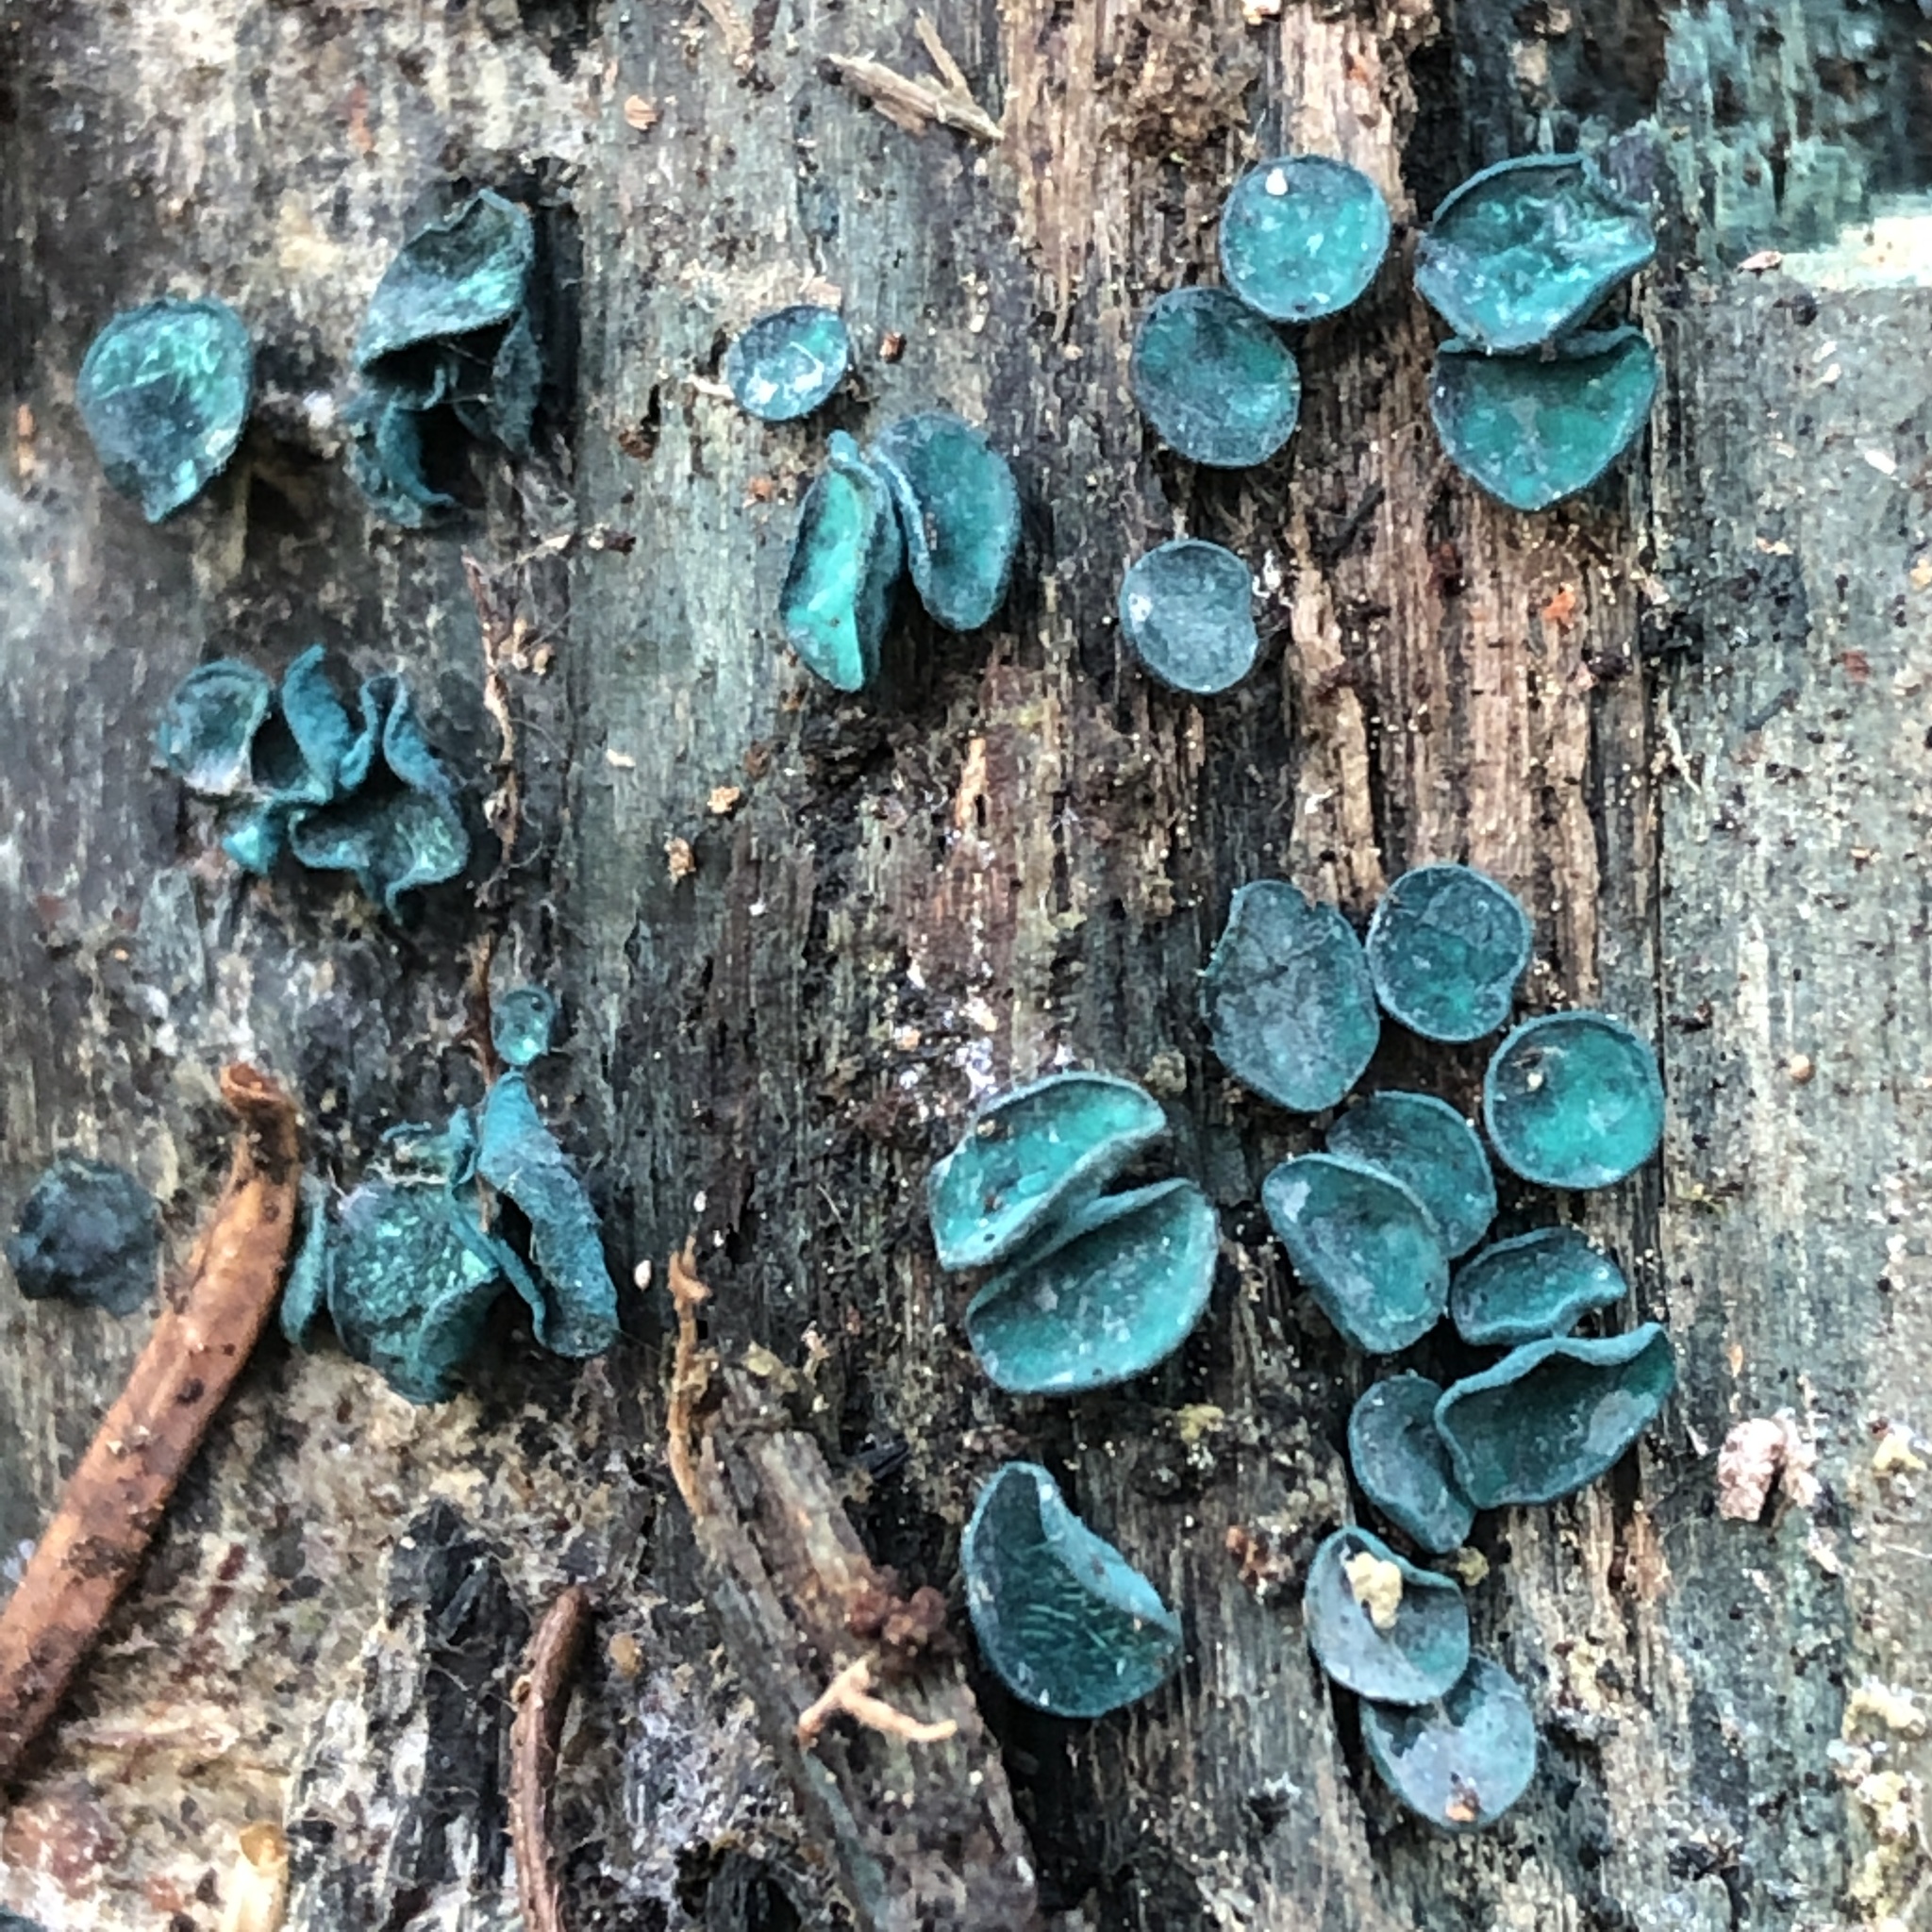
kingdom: Fungi
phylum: Ascomycota
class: Leotiomycetes
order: Helotiales
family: Chlorociboriaceae
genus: Chlorociboria
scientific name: Chlorociboria aeruginosa
